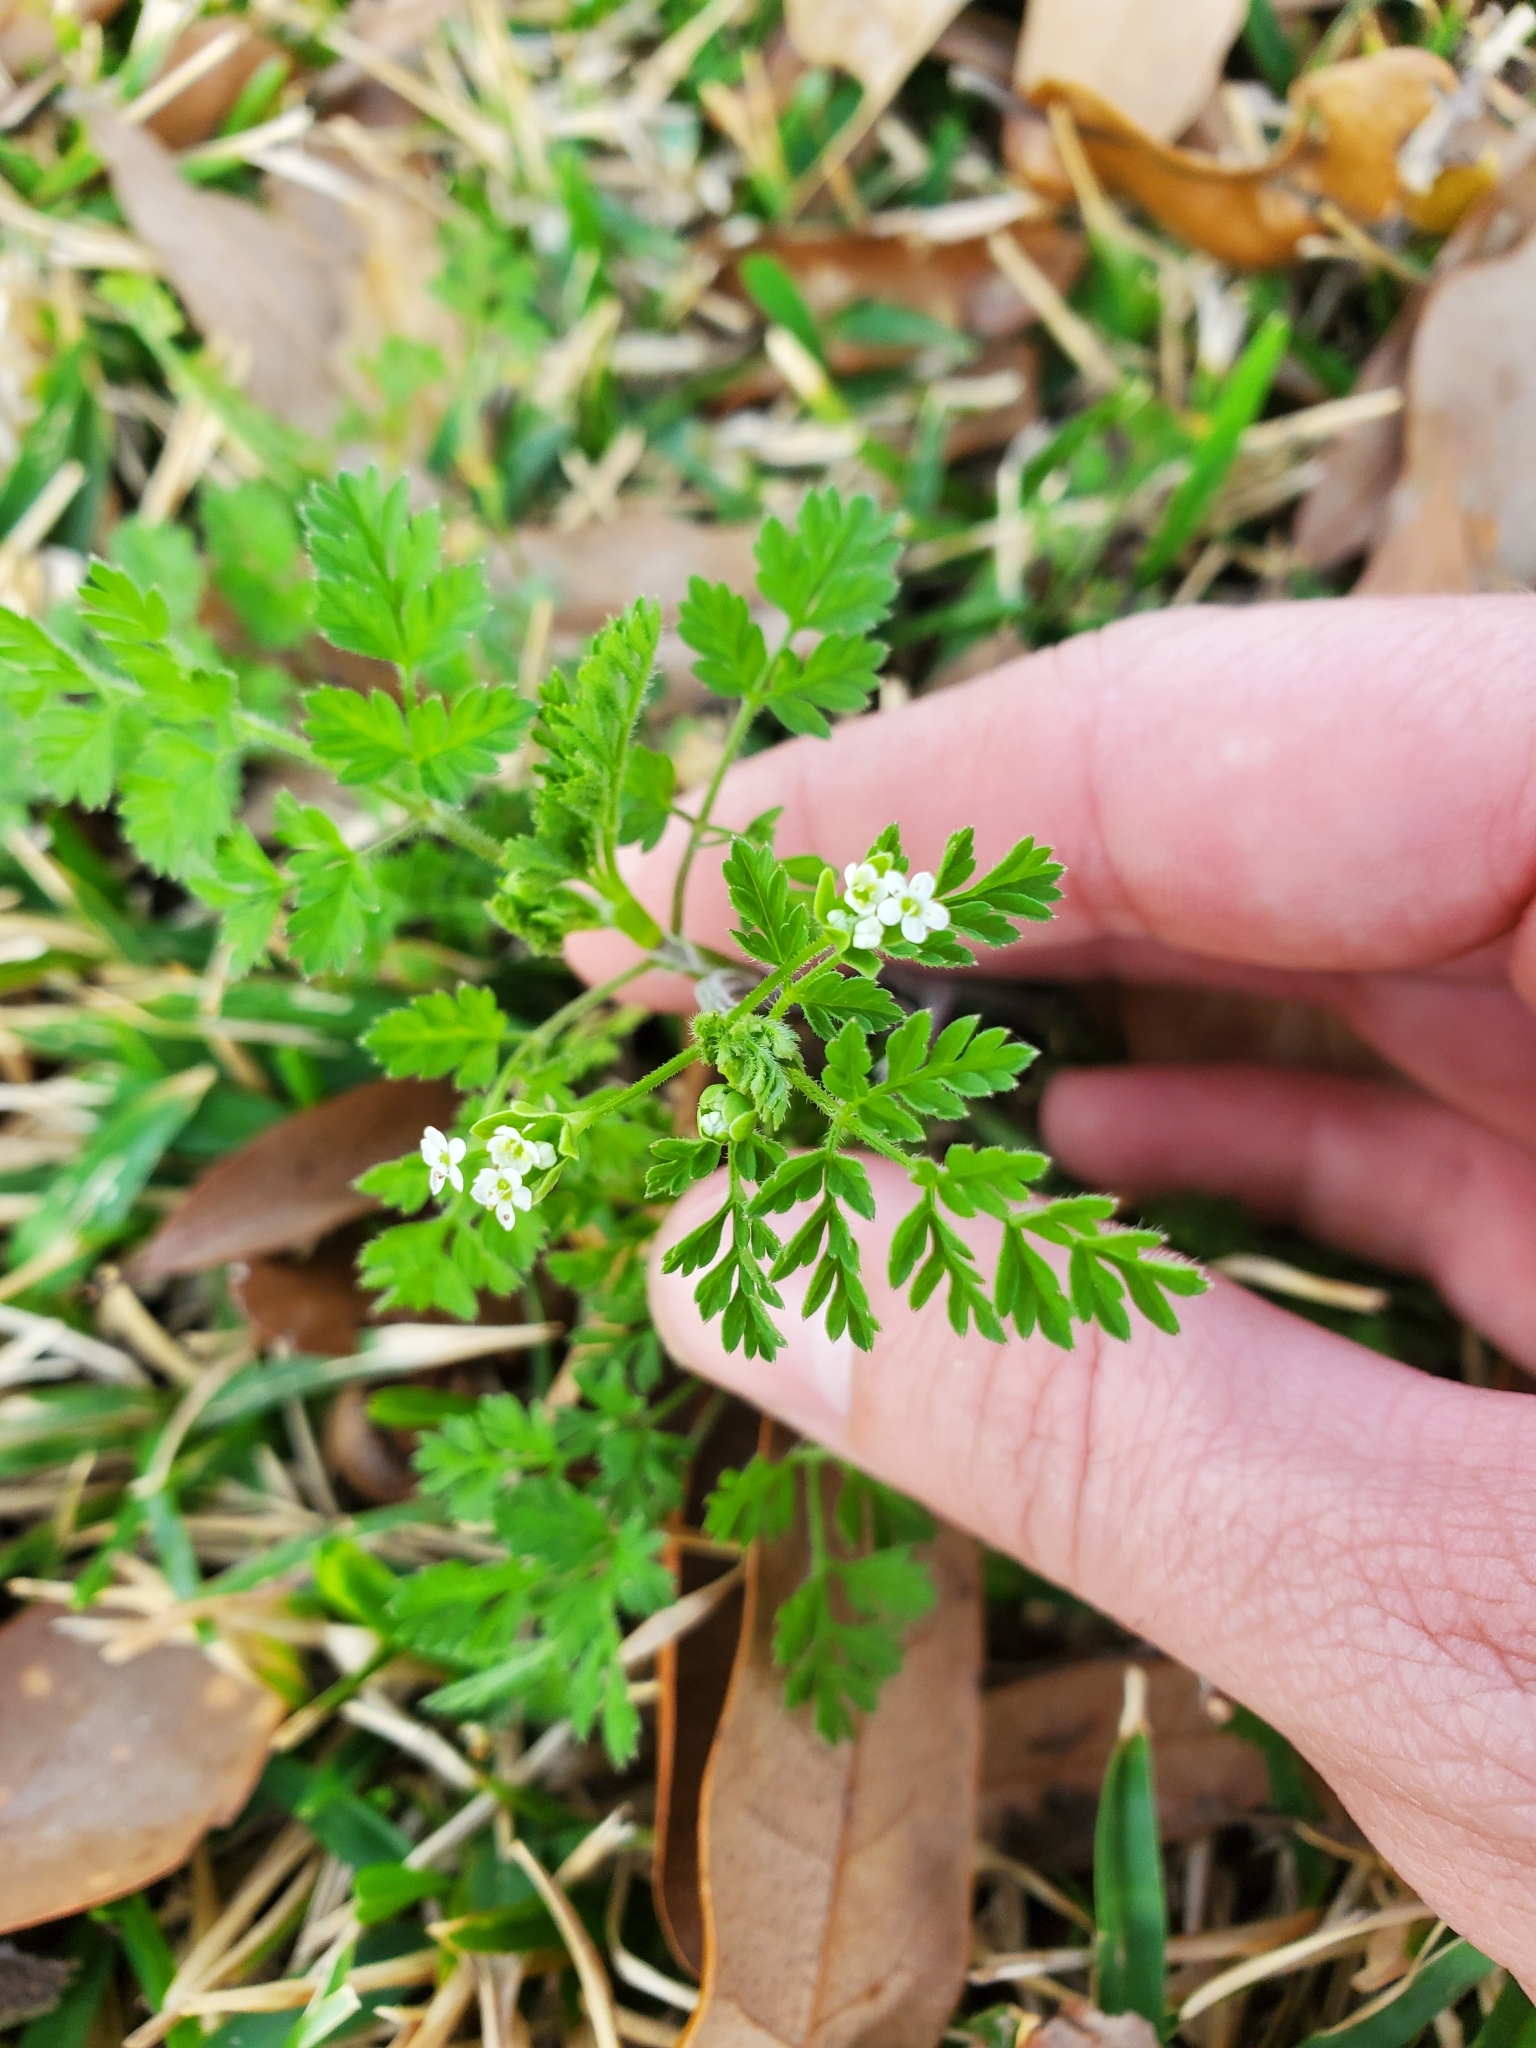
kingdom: Plantae
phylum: Tracheophyta
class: Magnoliopsida
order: Apiales
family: Apiaceae
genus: Chaerophyllum
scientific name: Chaerophyllum tainturieri
